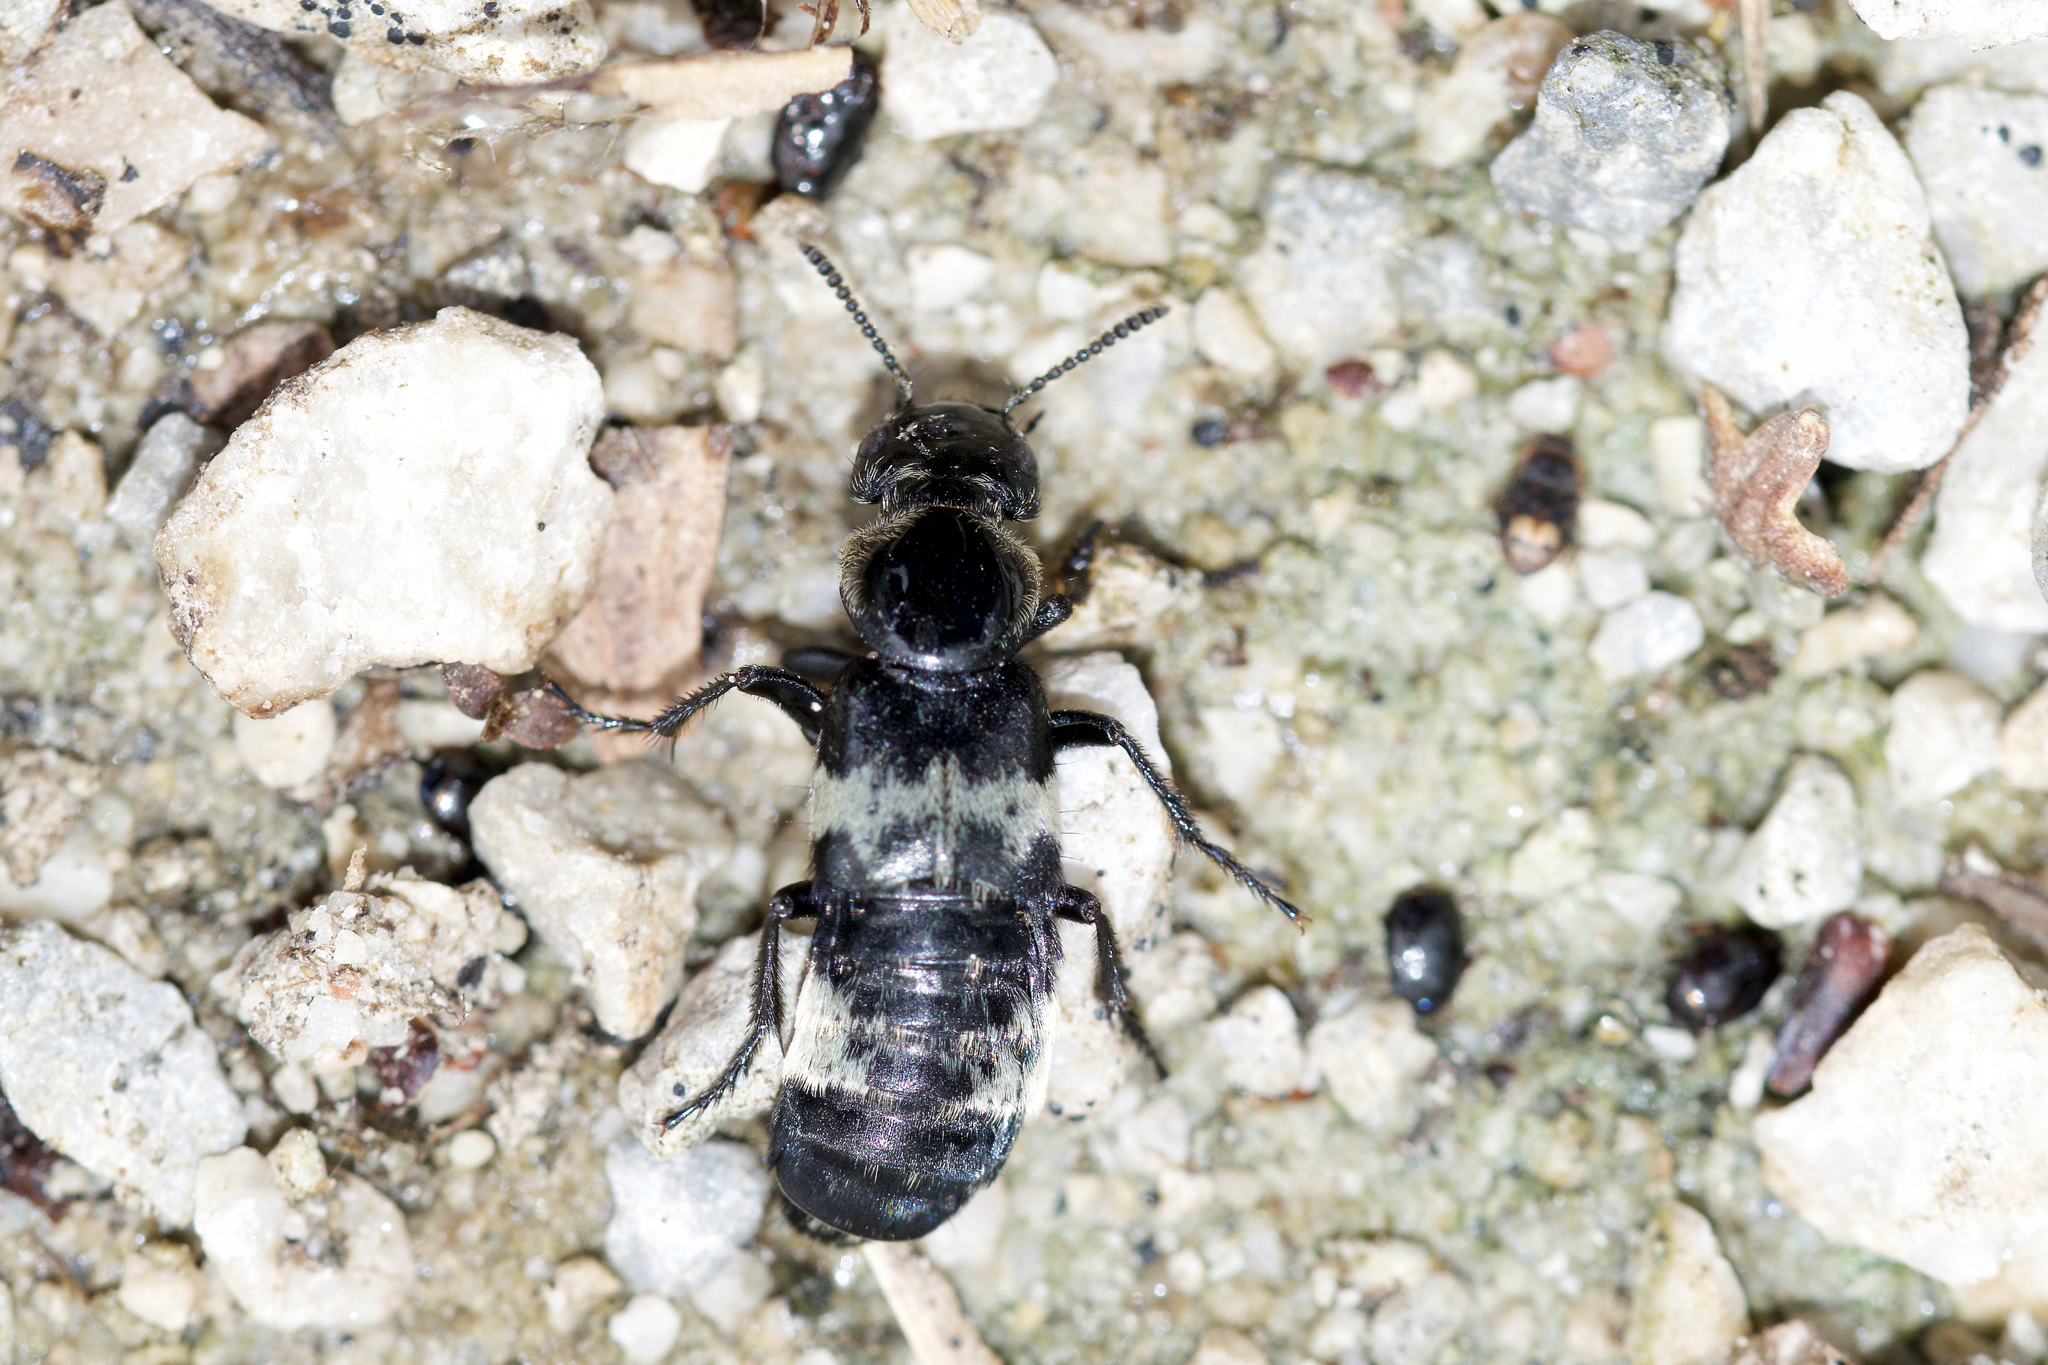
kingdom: Animalia
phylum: Arthropoda
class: Insecta
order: Coleoptera
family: Staphylinidae
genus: Creophilus
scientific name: Creophilus maxillosus
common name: Hairy rove beetle
